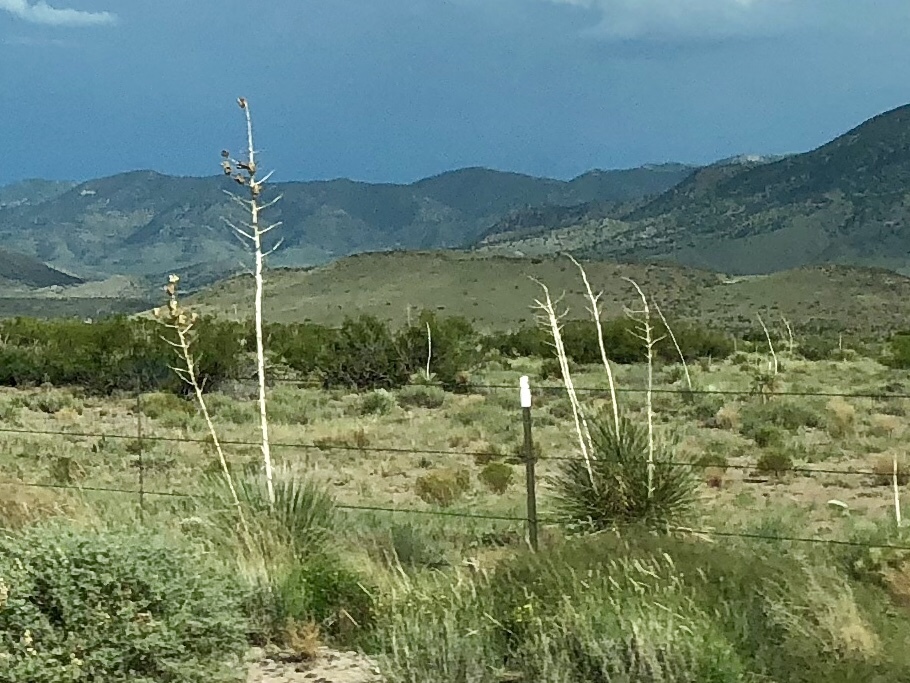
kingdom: Plantae
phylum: Tracheophyta
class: Liliopsida
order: Asparagales
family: Asparagaceae
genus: Yucca
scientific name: Yucca elata
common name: Palmella
